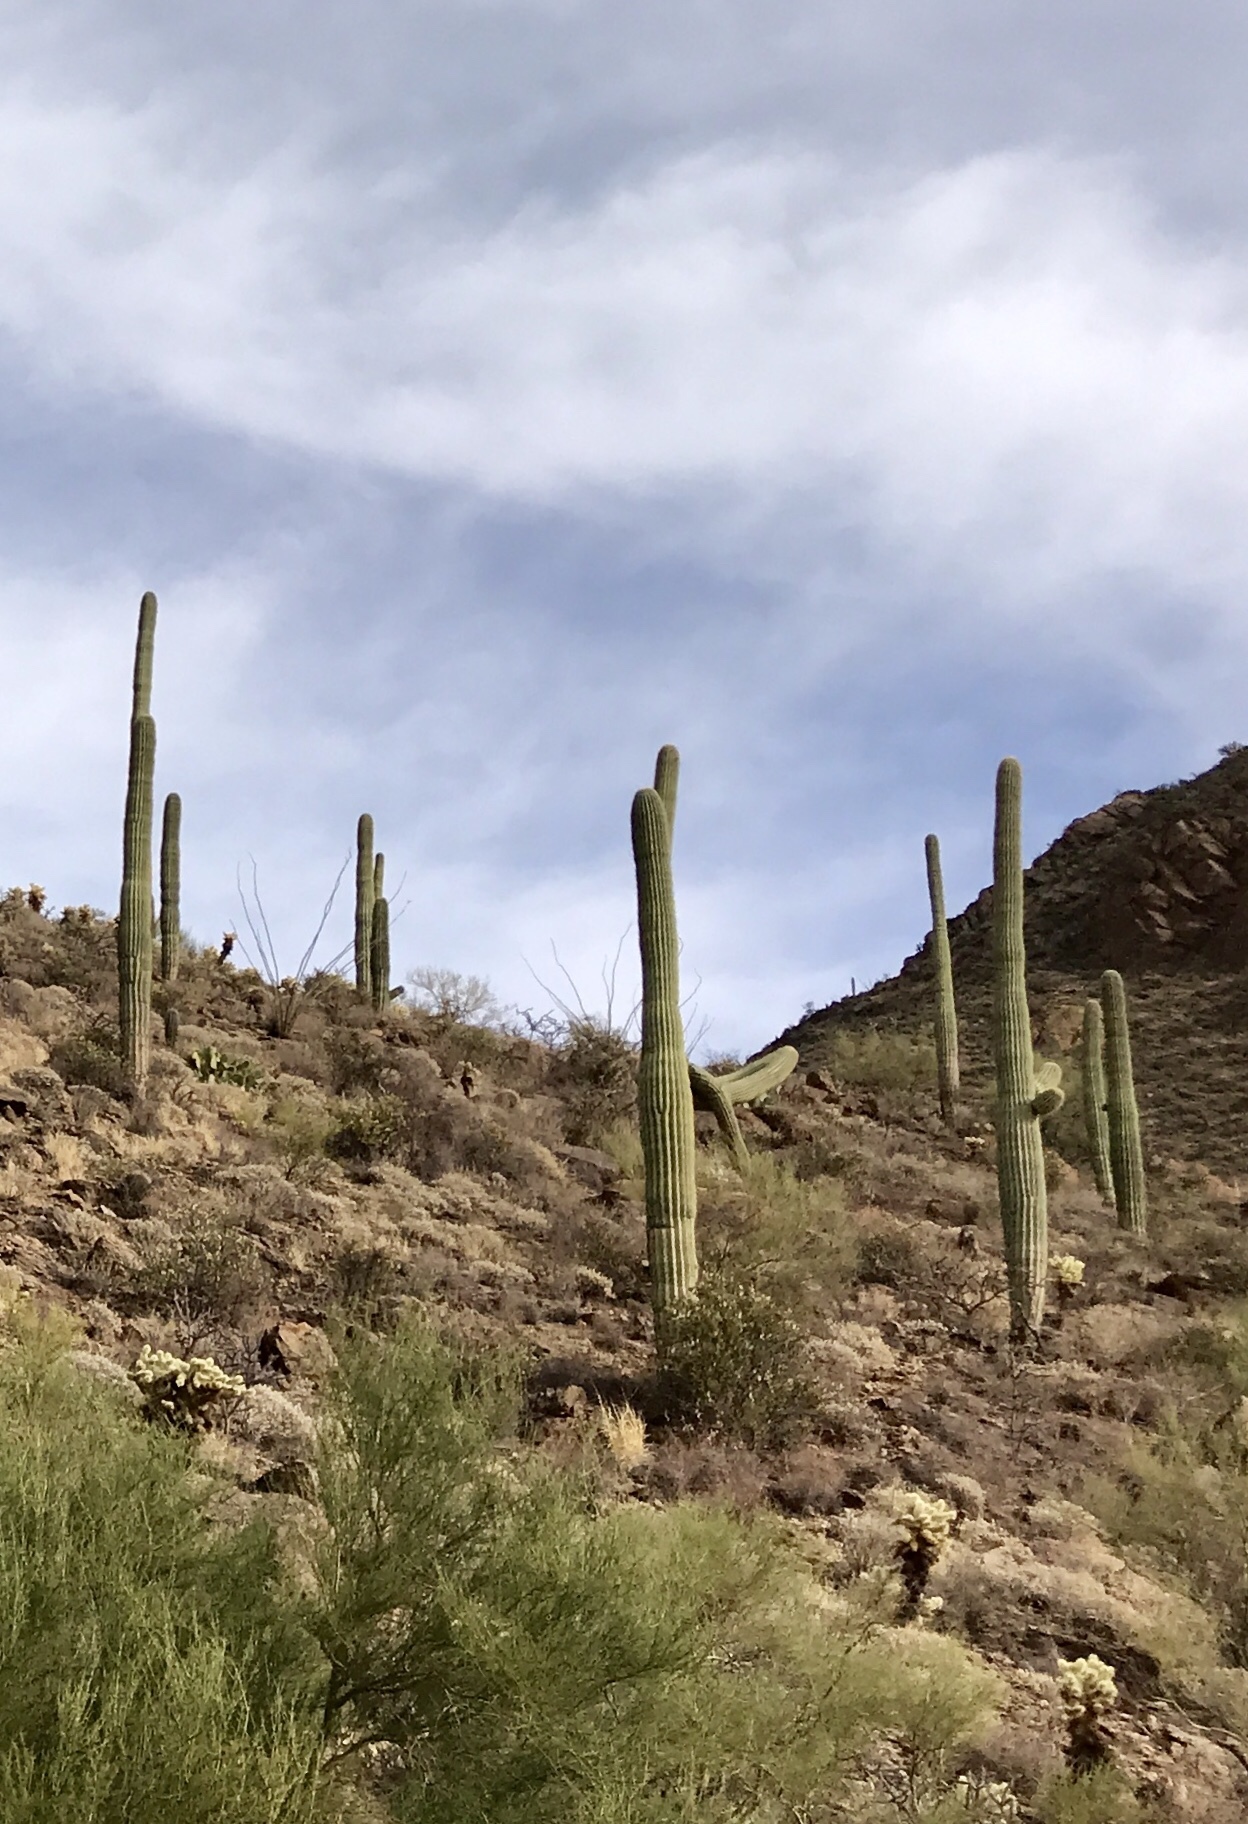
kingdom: Plantae
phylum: Tracheophyta
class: Magnoliopsida
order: Caryophyllales
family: Cactaceae
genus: Carnegiea
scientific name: Carnegiea gigantea
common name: Saguaro
